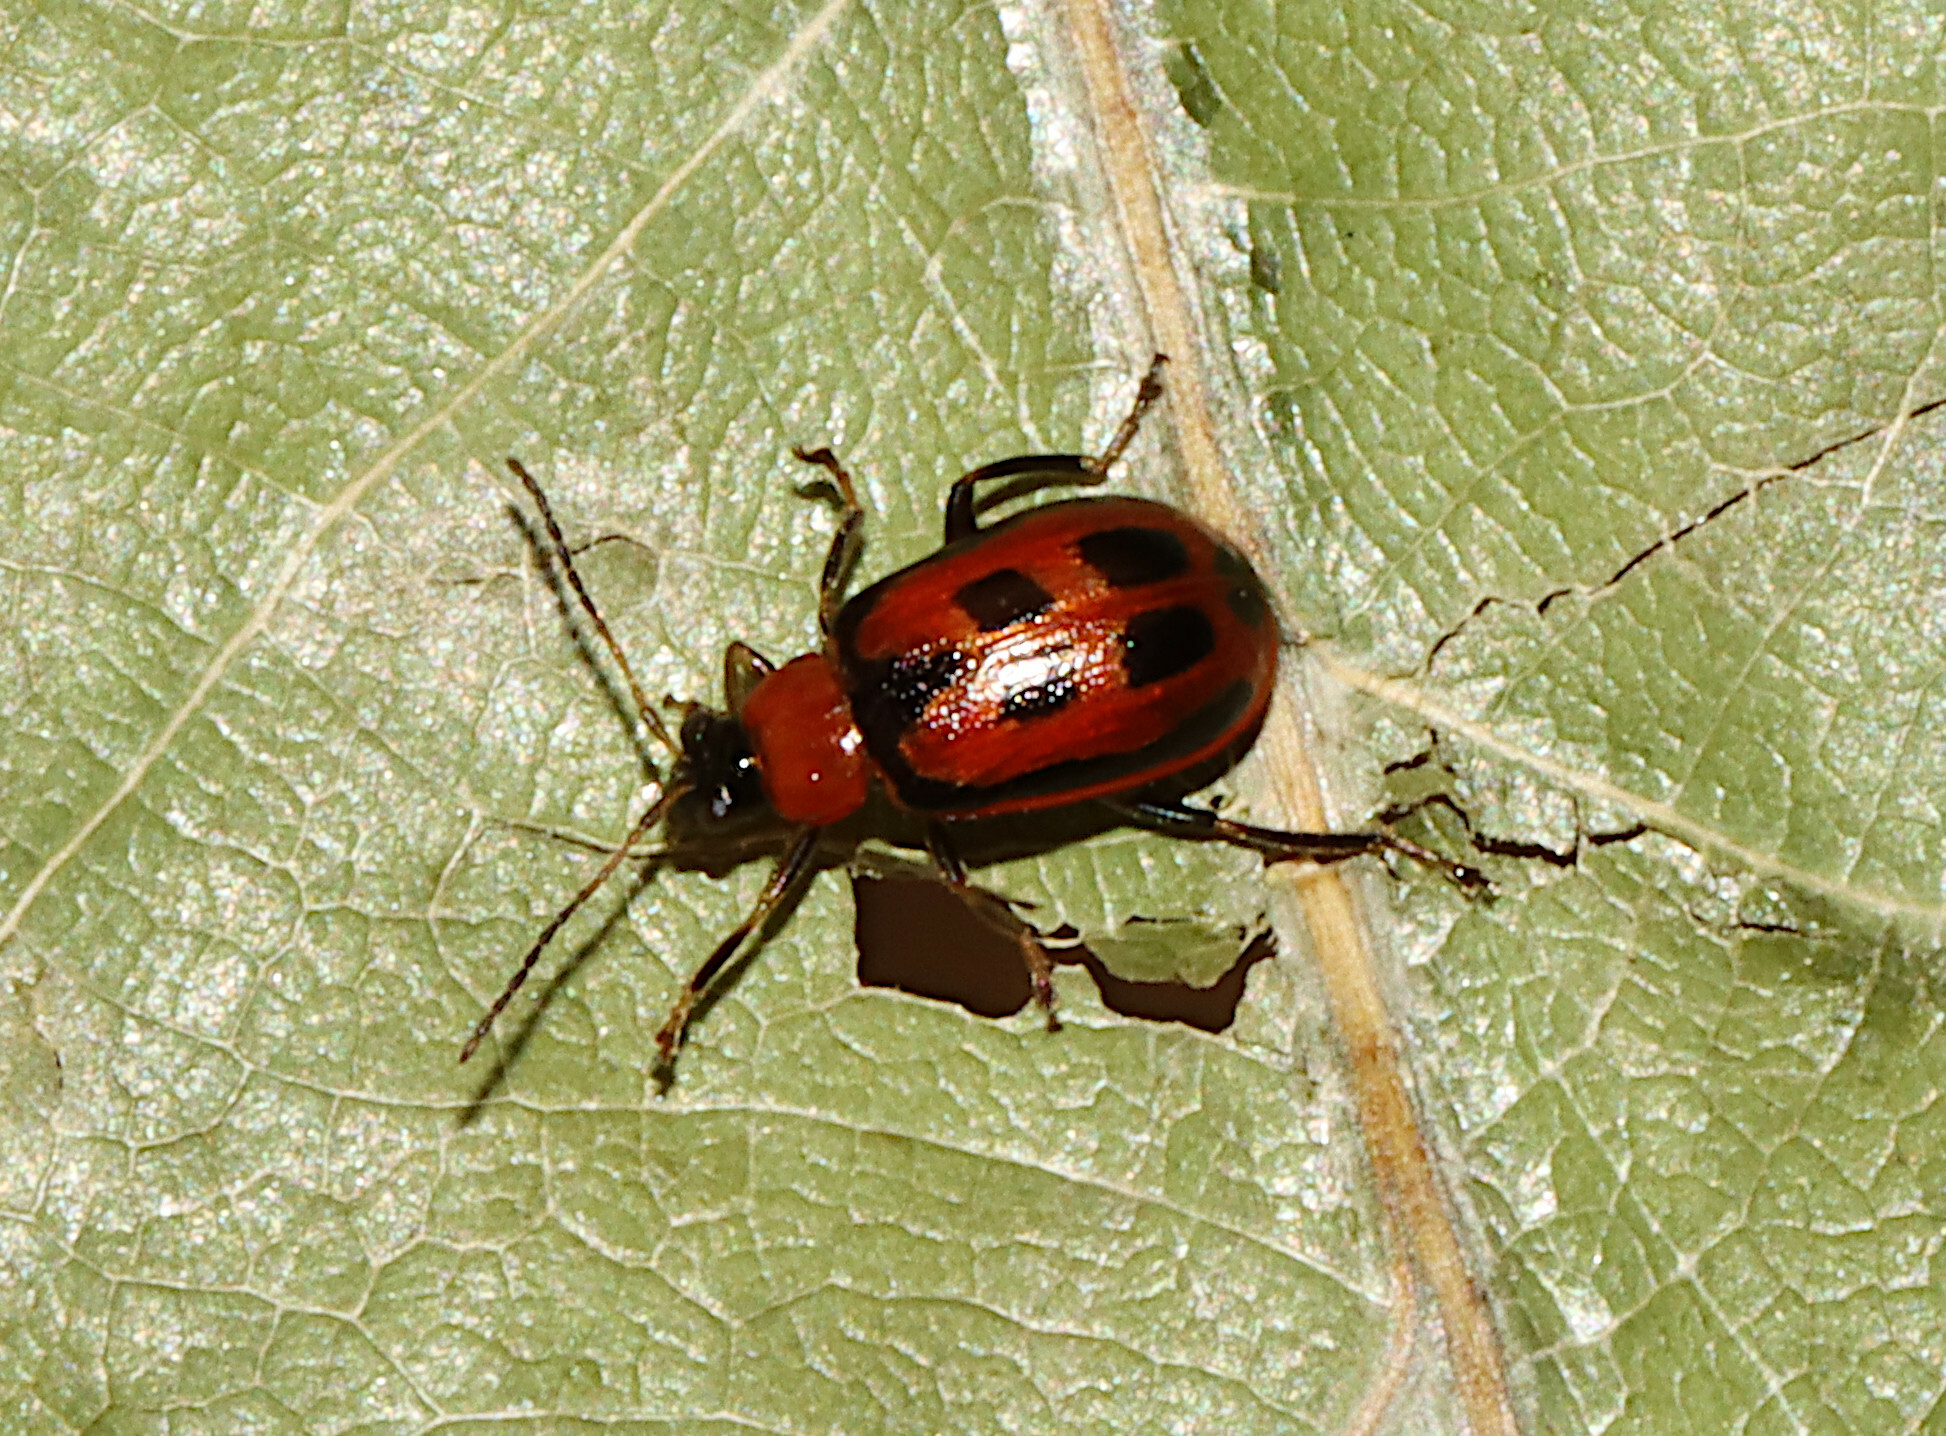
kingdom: Animalia
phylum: Arthropoda
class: Insecta
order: Coleoptera
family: Chrysomelidae
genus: Cerotoma
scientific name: Cerotoma trifurcata
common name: Bean leaf beetle
